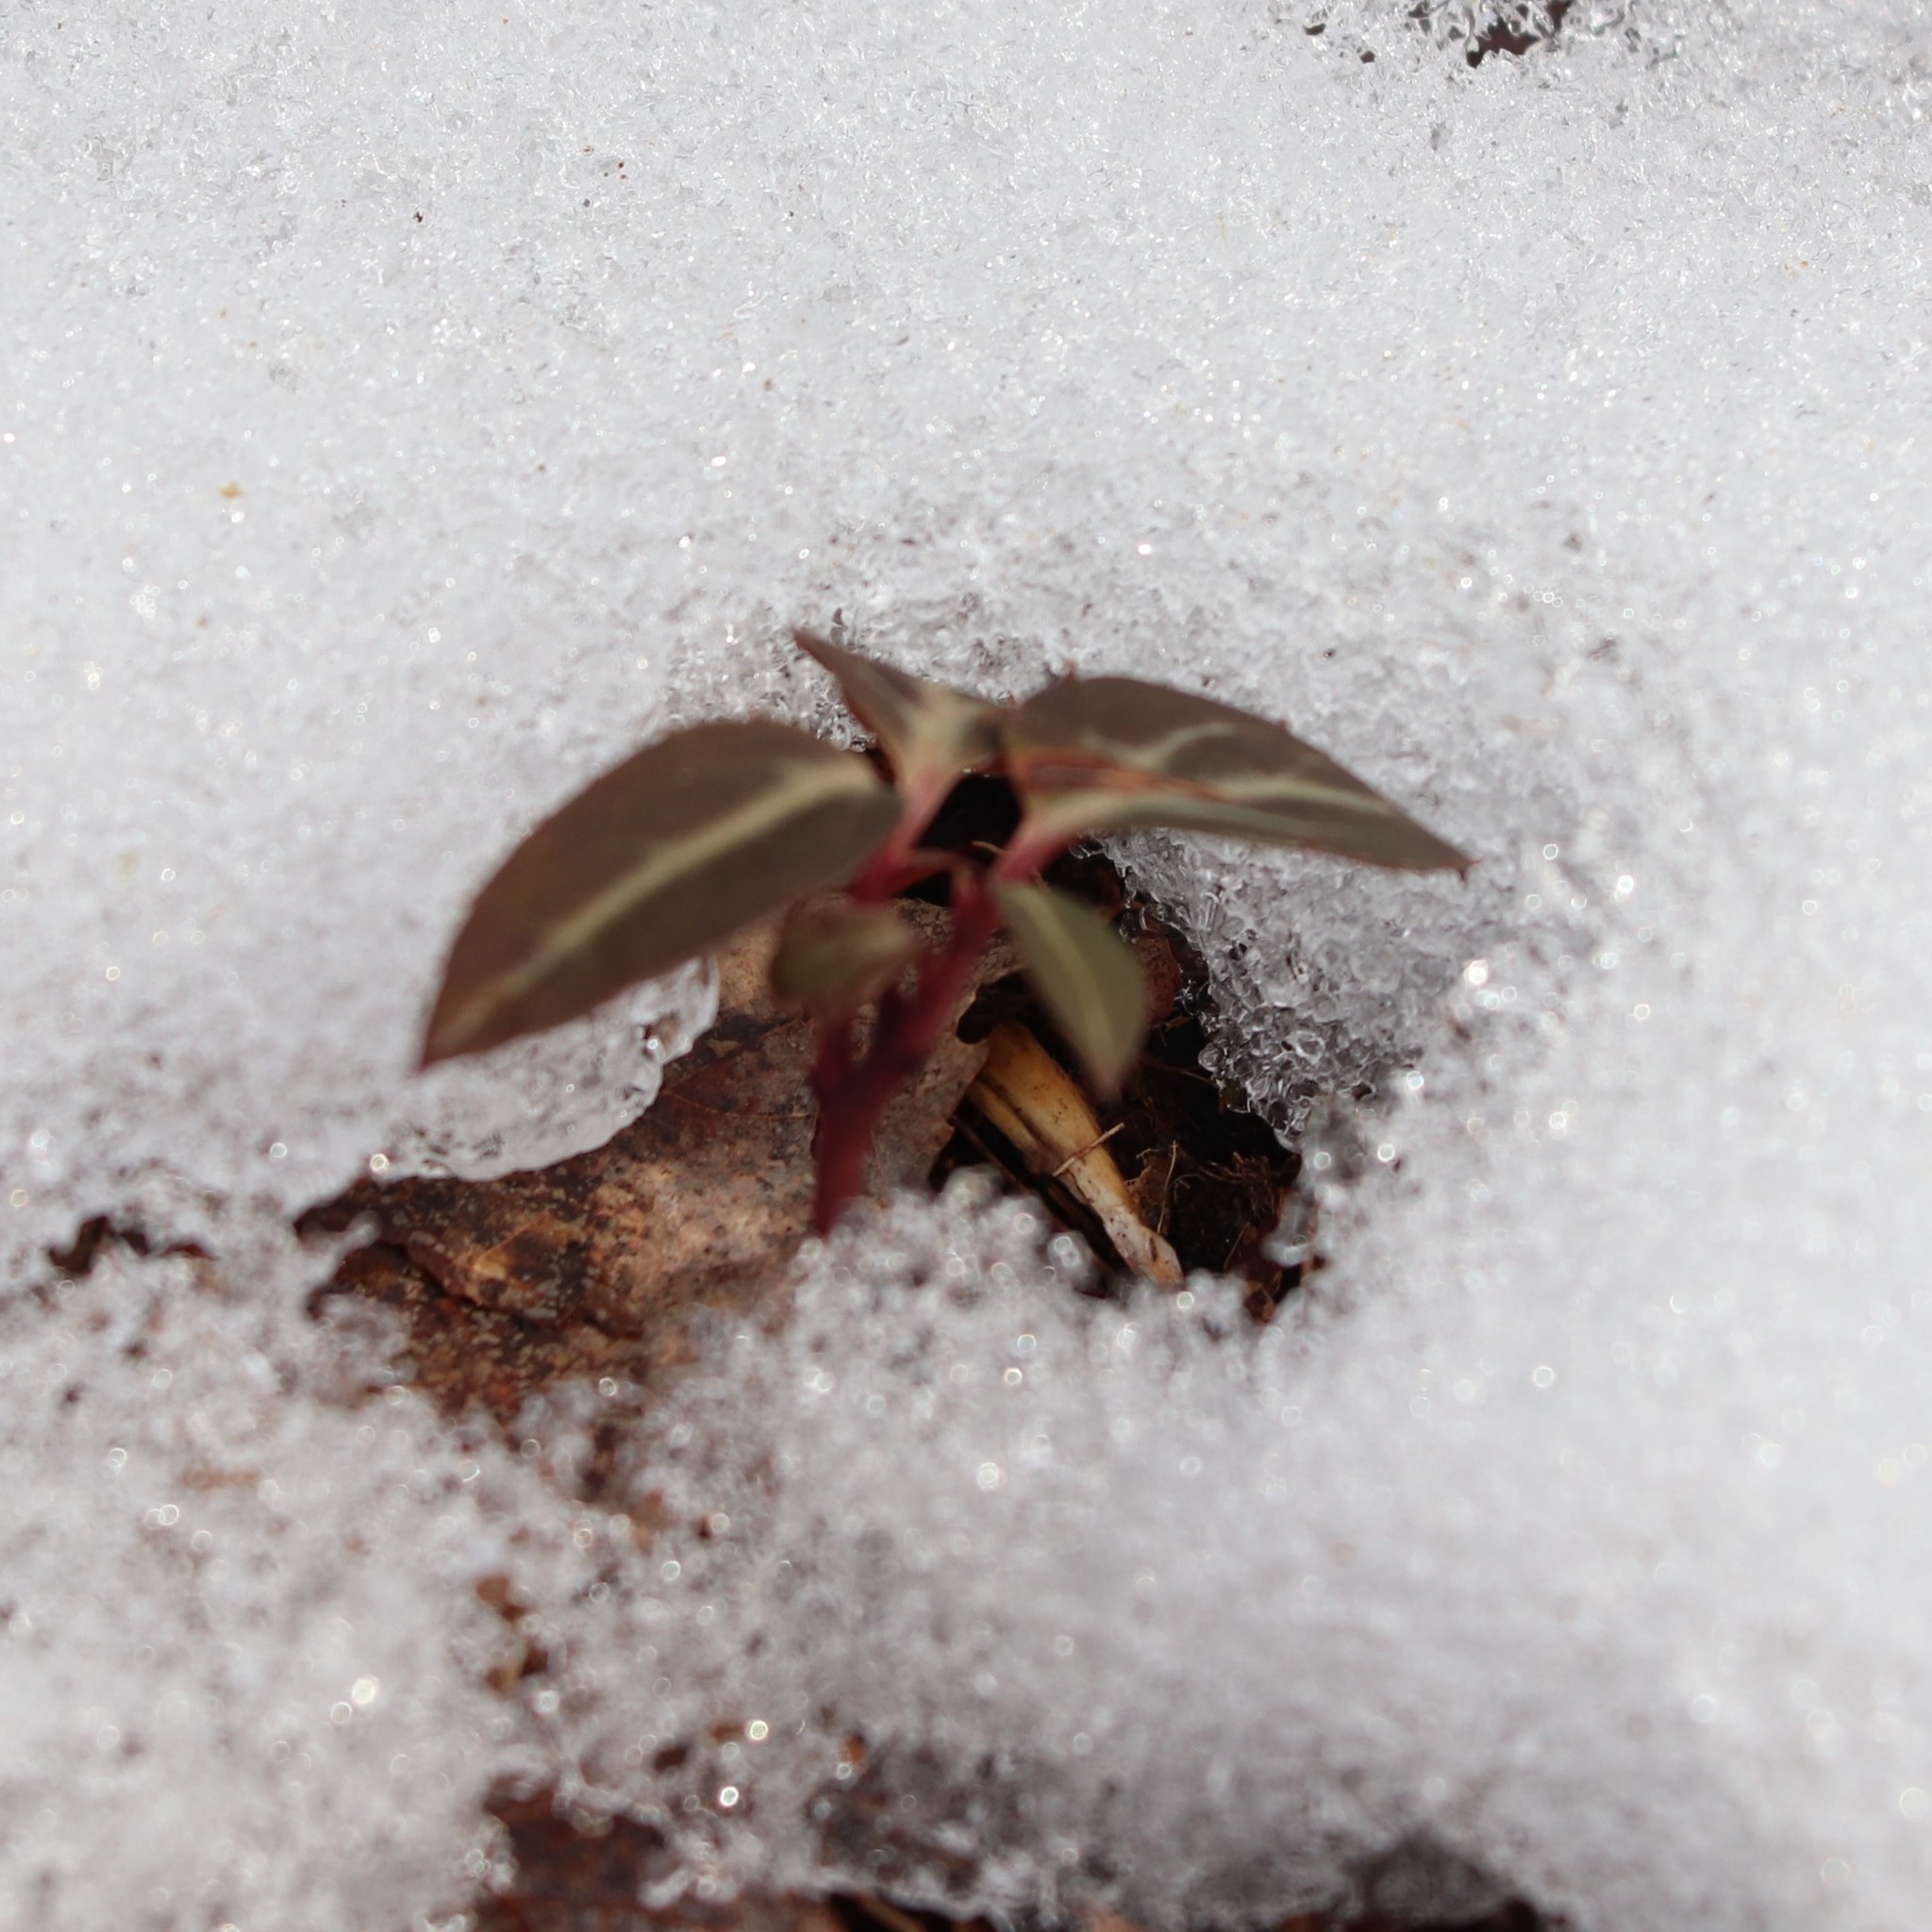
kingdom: Plantae
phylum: Tracheophyta
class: Magnoliopsida
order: Ericales
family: Ericaceae
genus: Chimaphila
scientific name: Chimaphila maculata
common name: Spotted pipsissewa
